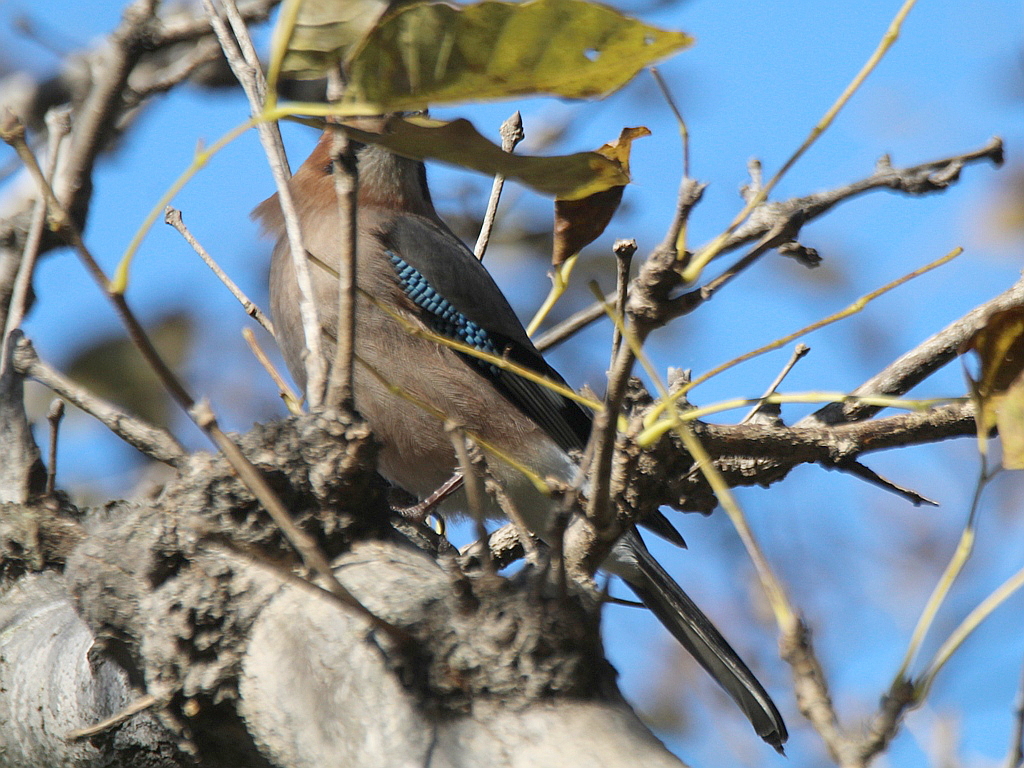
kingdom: Animalia
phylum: Chordata
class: Aves
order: Passeriformes
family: Corvidae
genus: Garrulus
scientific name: Garrulus glandarius
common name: Eurasian jay
